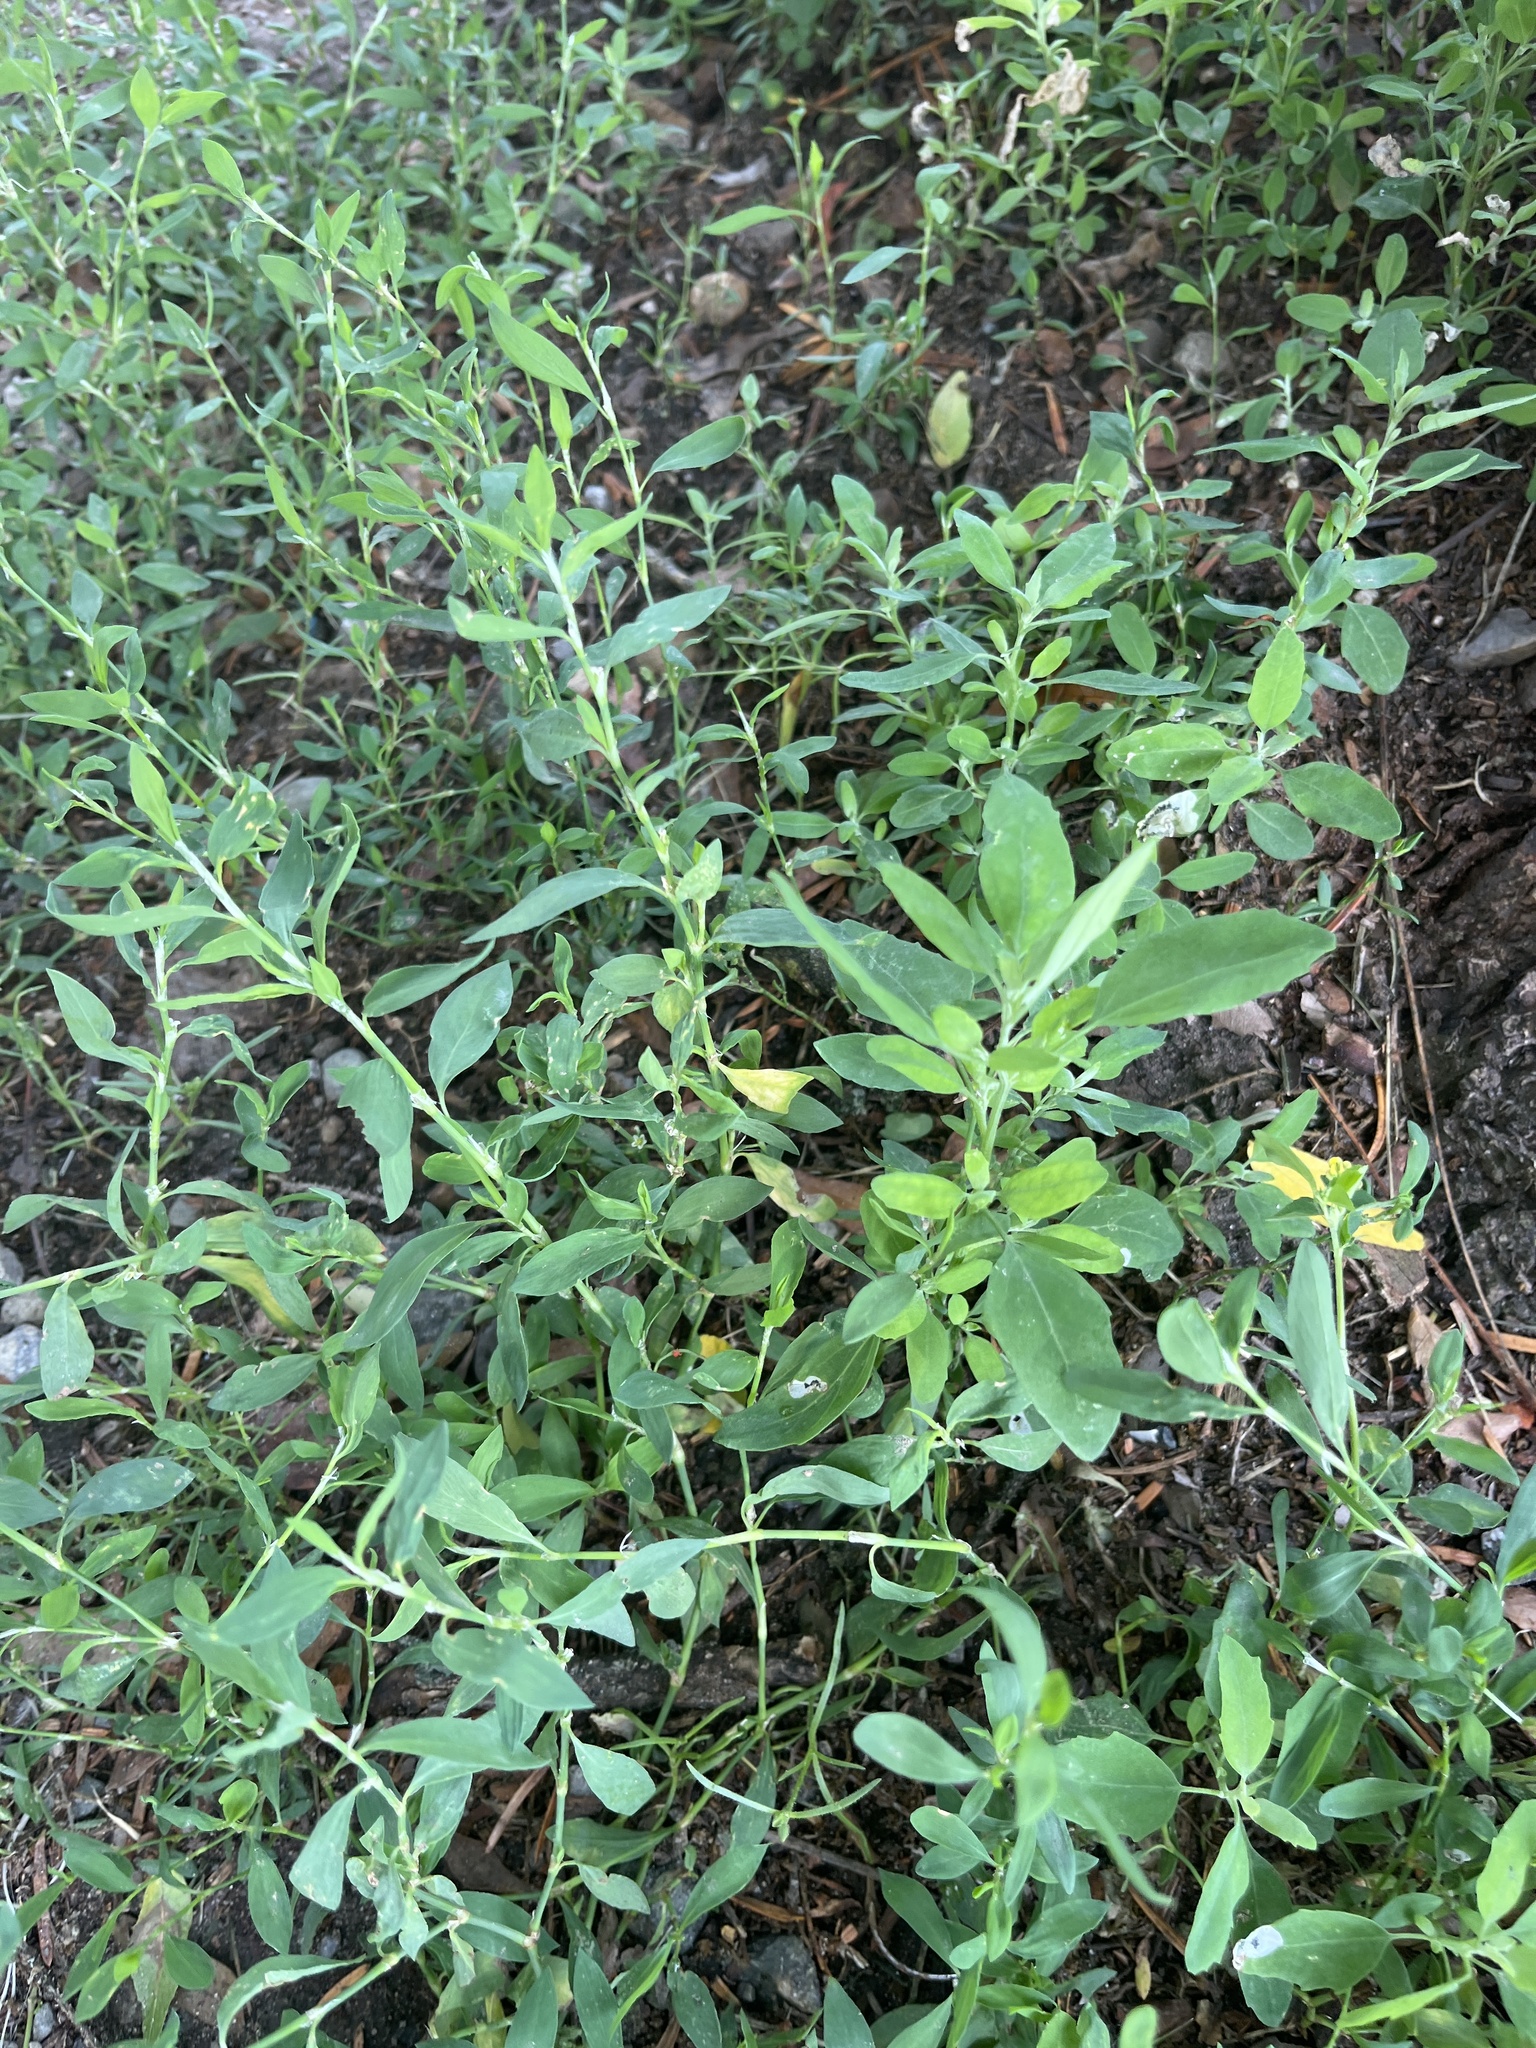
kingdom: Plantae
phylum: Tracheophyta
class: Magnoliopsida
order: Caryophyllales
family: Polygonaceae
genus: Polygonum
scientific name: Polygonum aviculare
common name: Prostrate knotweed
